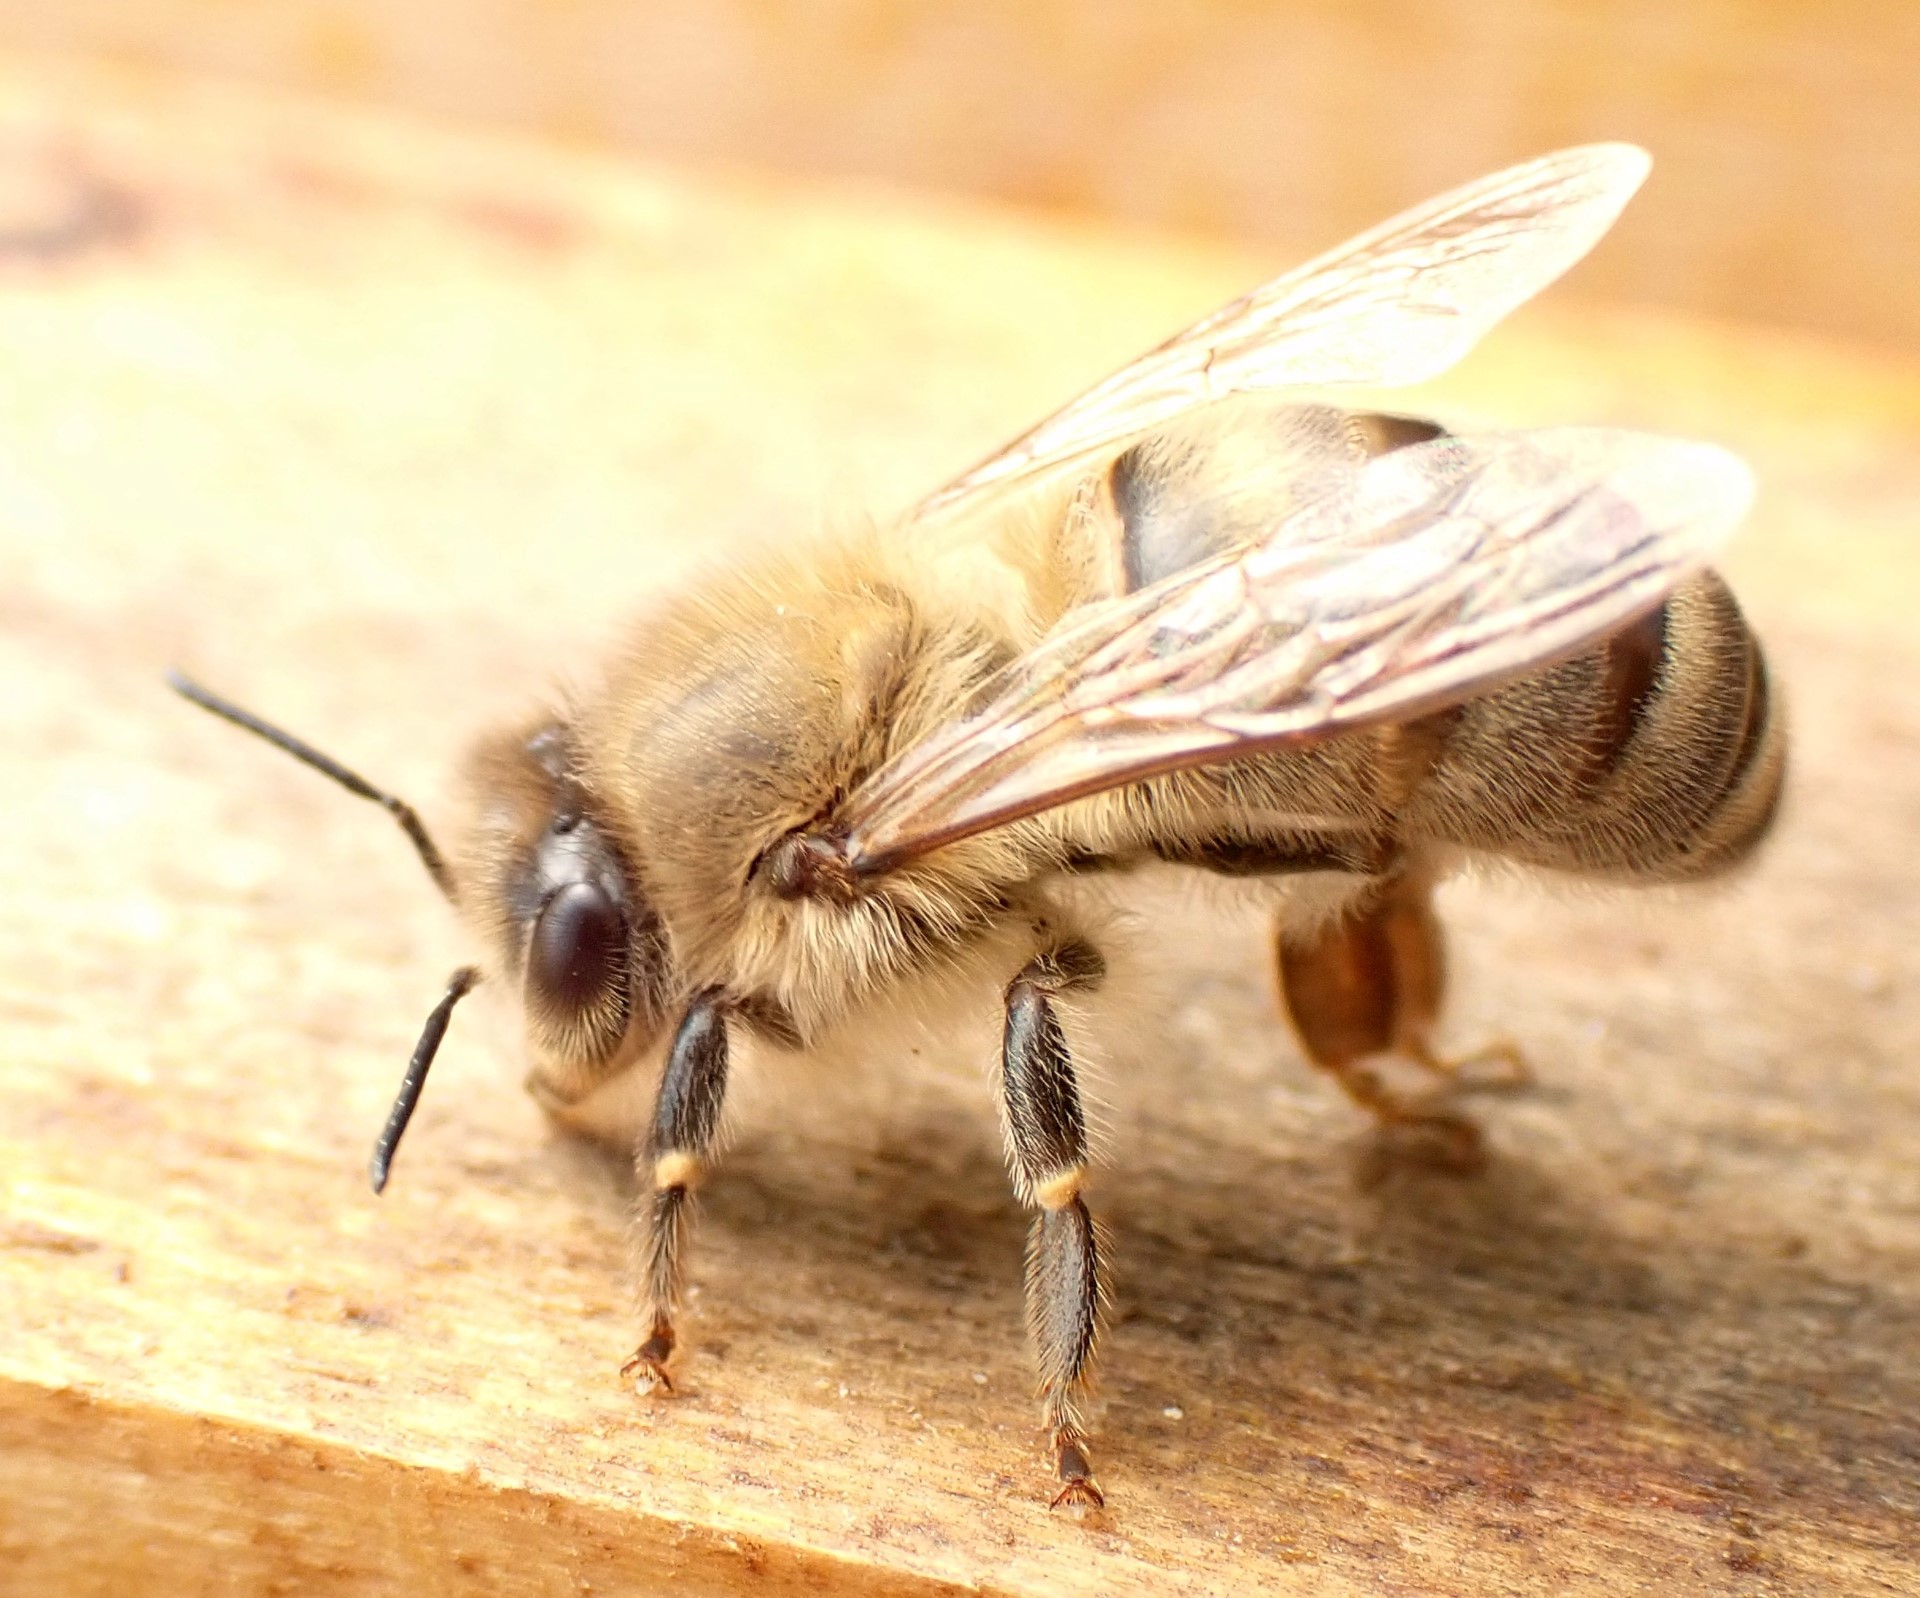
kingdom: Animalia
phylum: Arthropoda
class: Insecta
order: Hymenoptera
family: Apidae
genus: Apis
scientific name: Apis mellifera
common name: Honey bee
